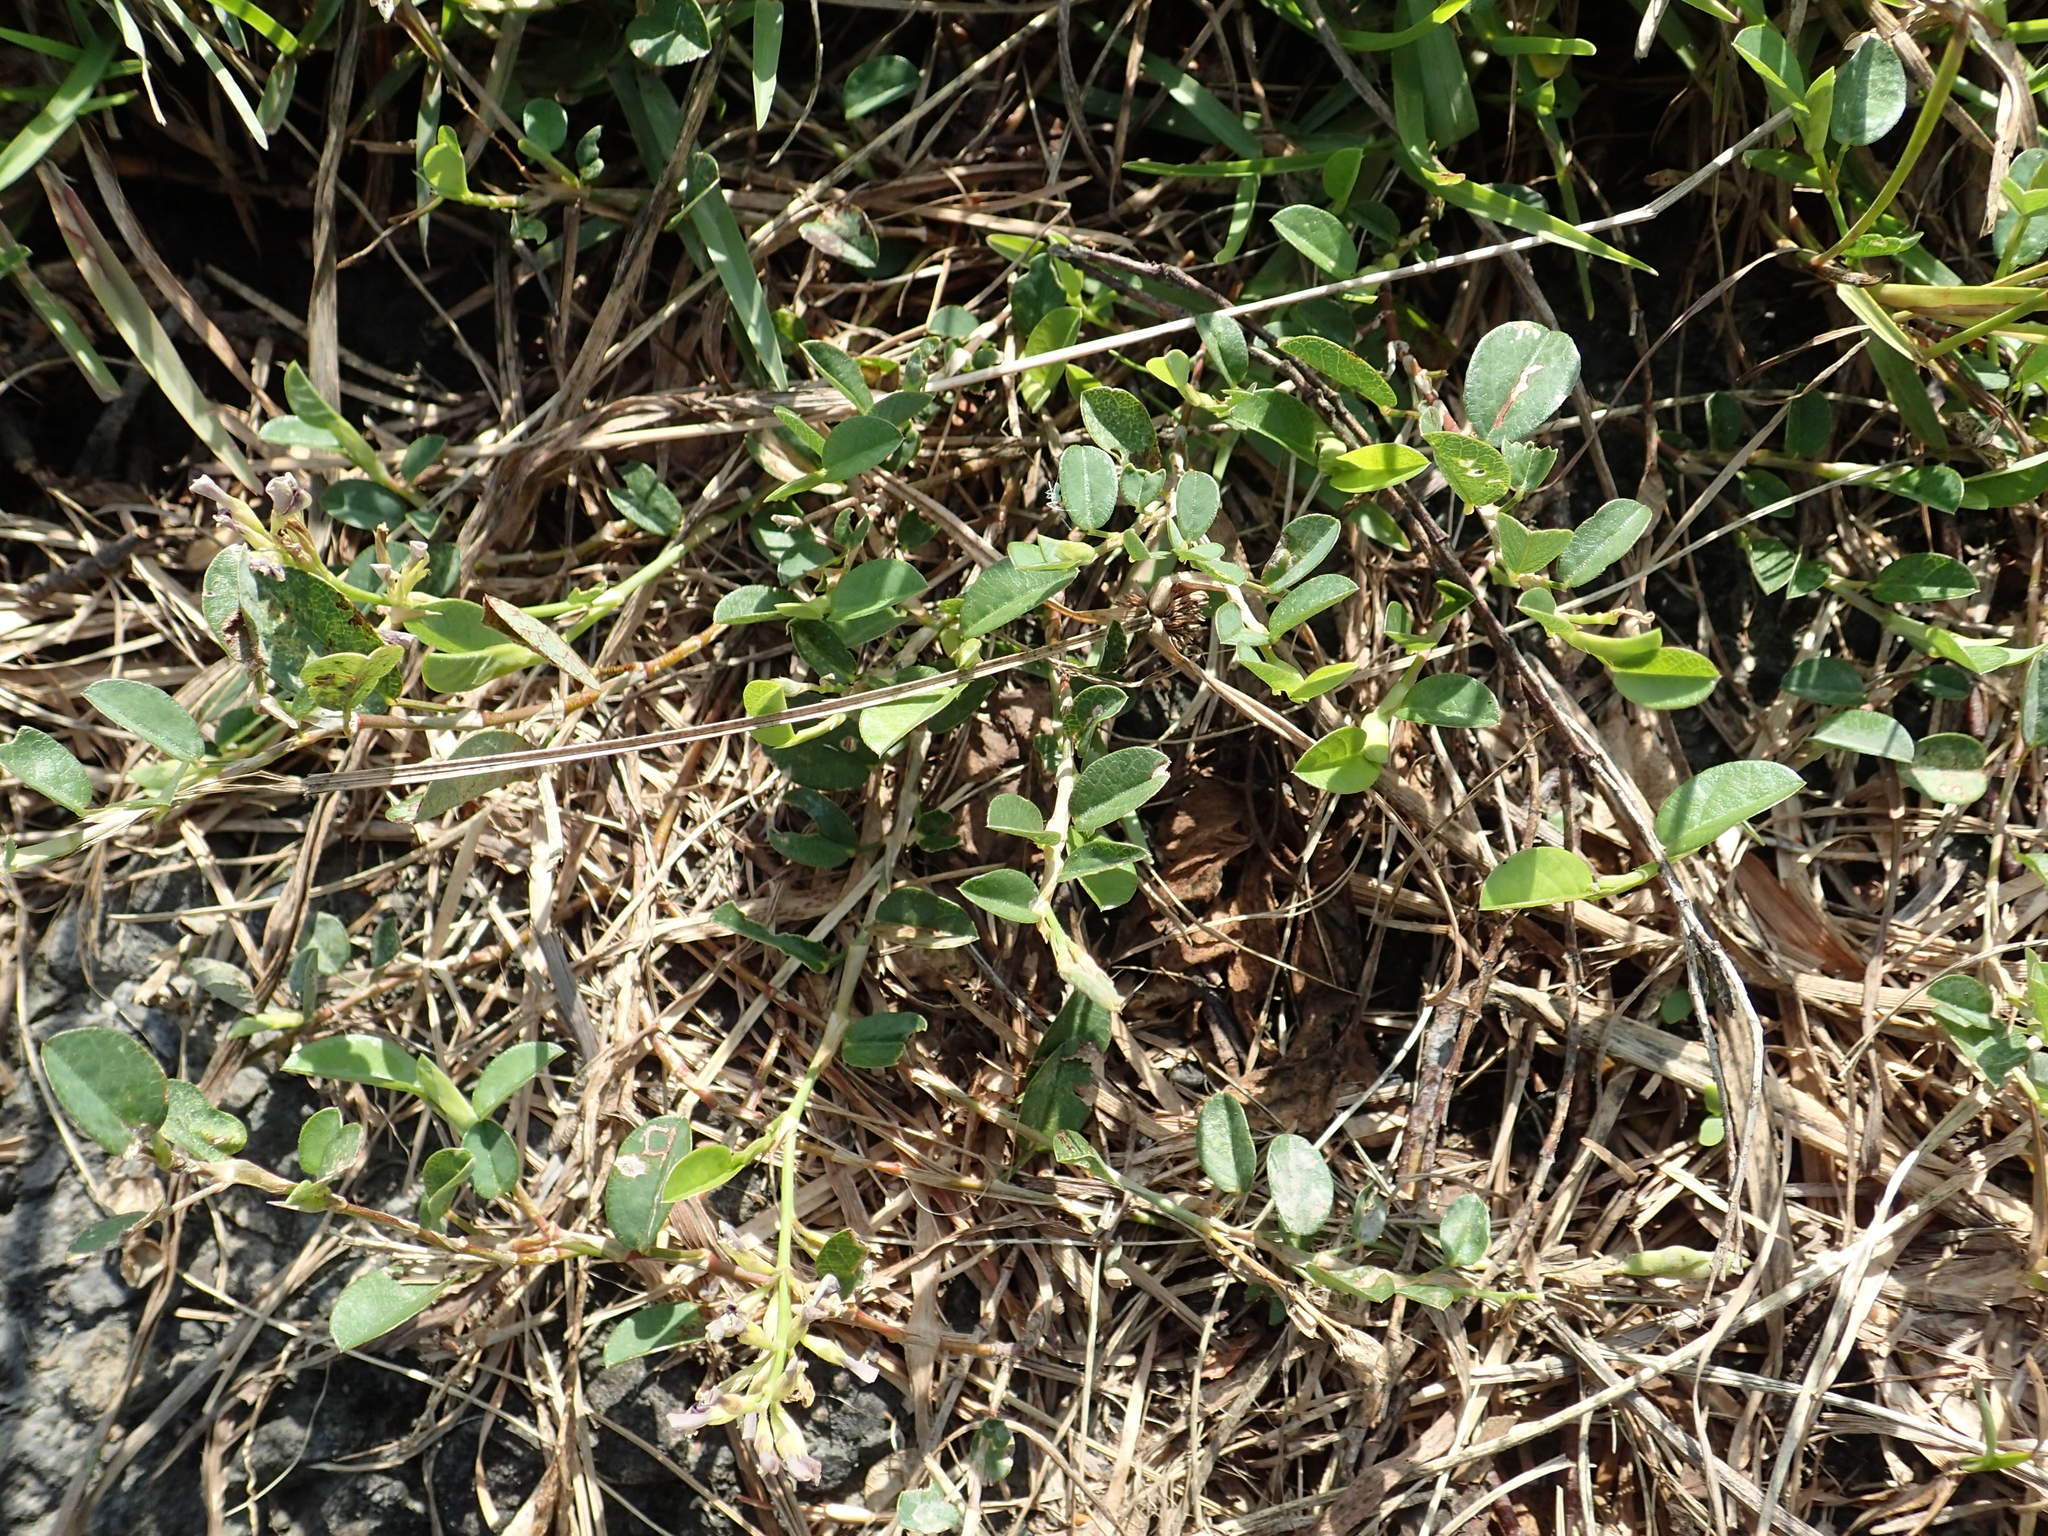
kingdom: Plantae
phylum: Tracheophyta
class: Magnoliopsida
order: Fabales
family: Fabaceae
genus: Alysicarpus
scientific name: Alysicarpus vaginalis
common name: White moneywort
